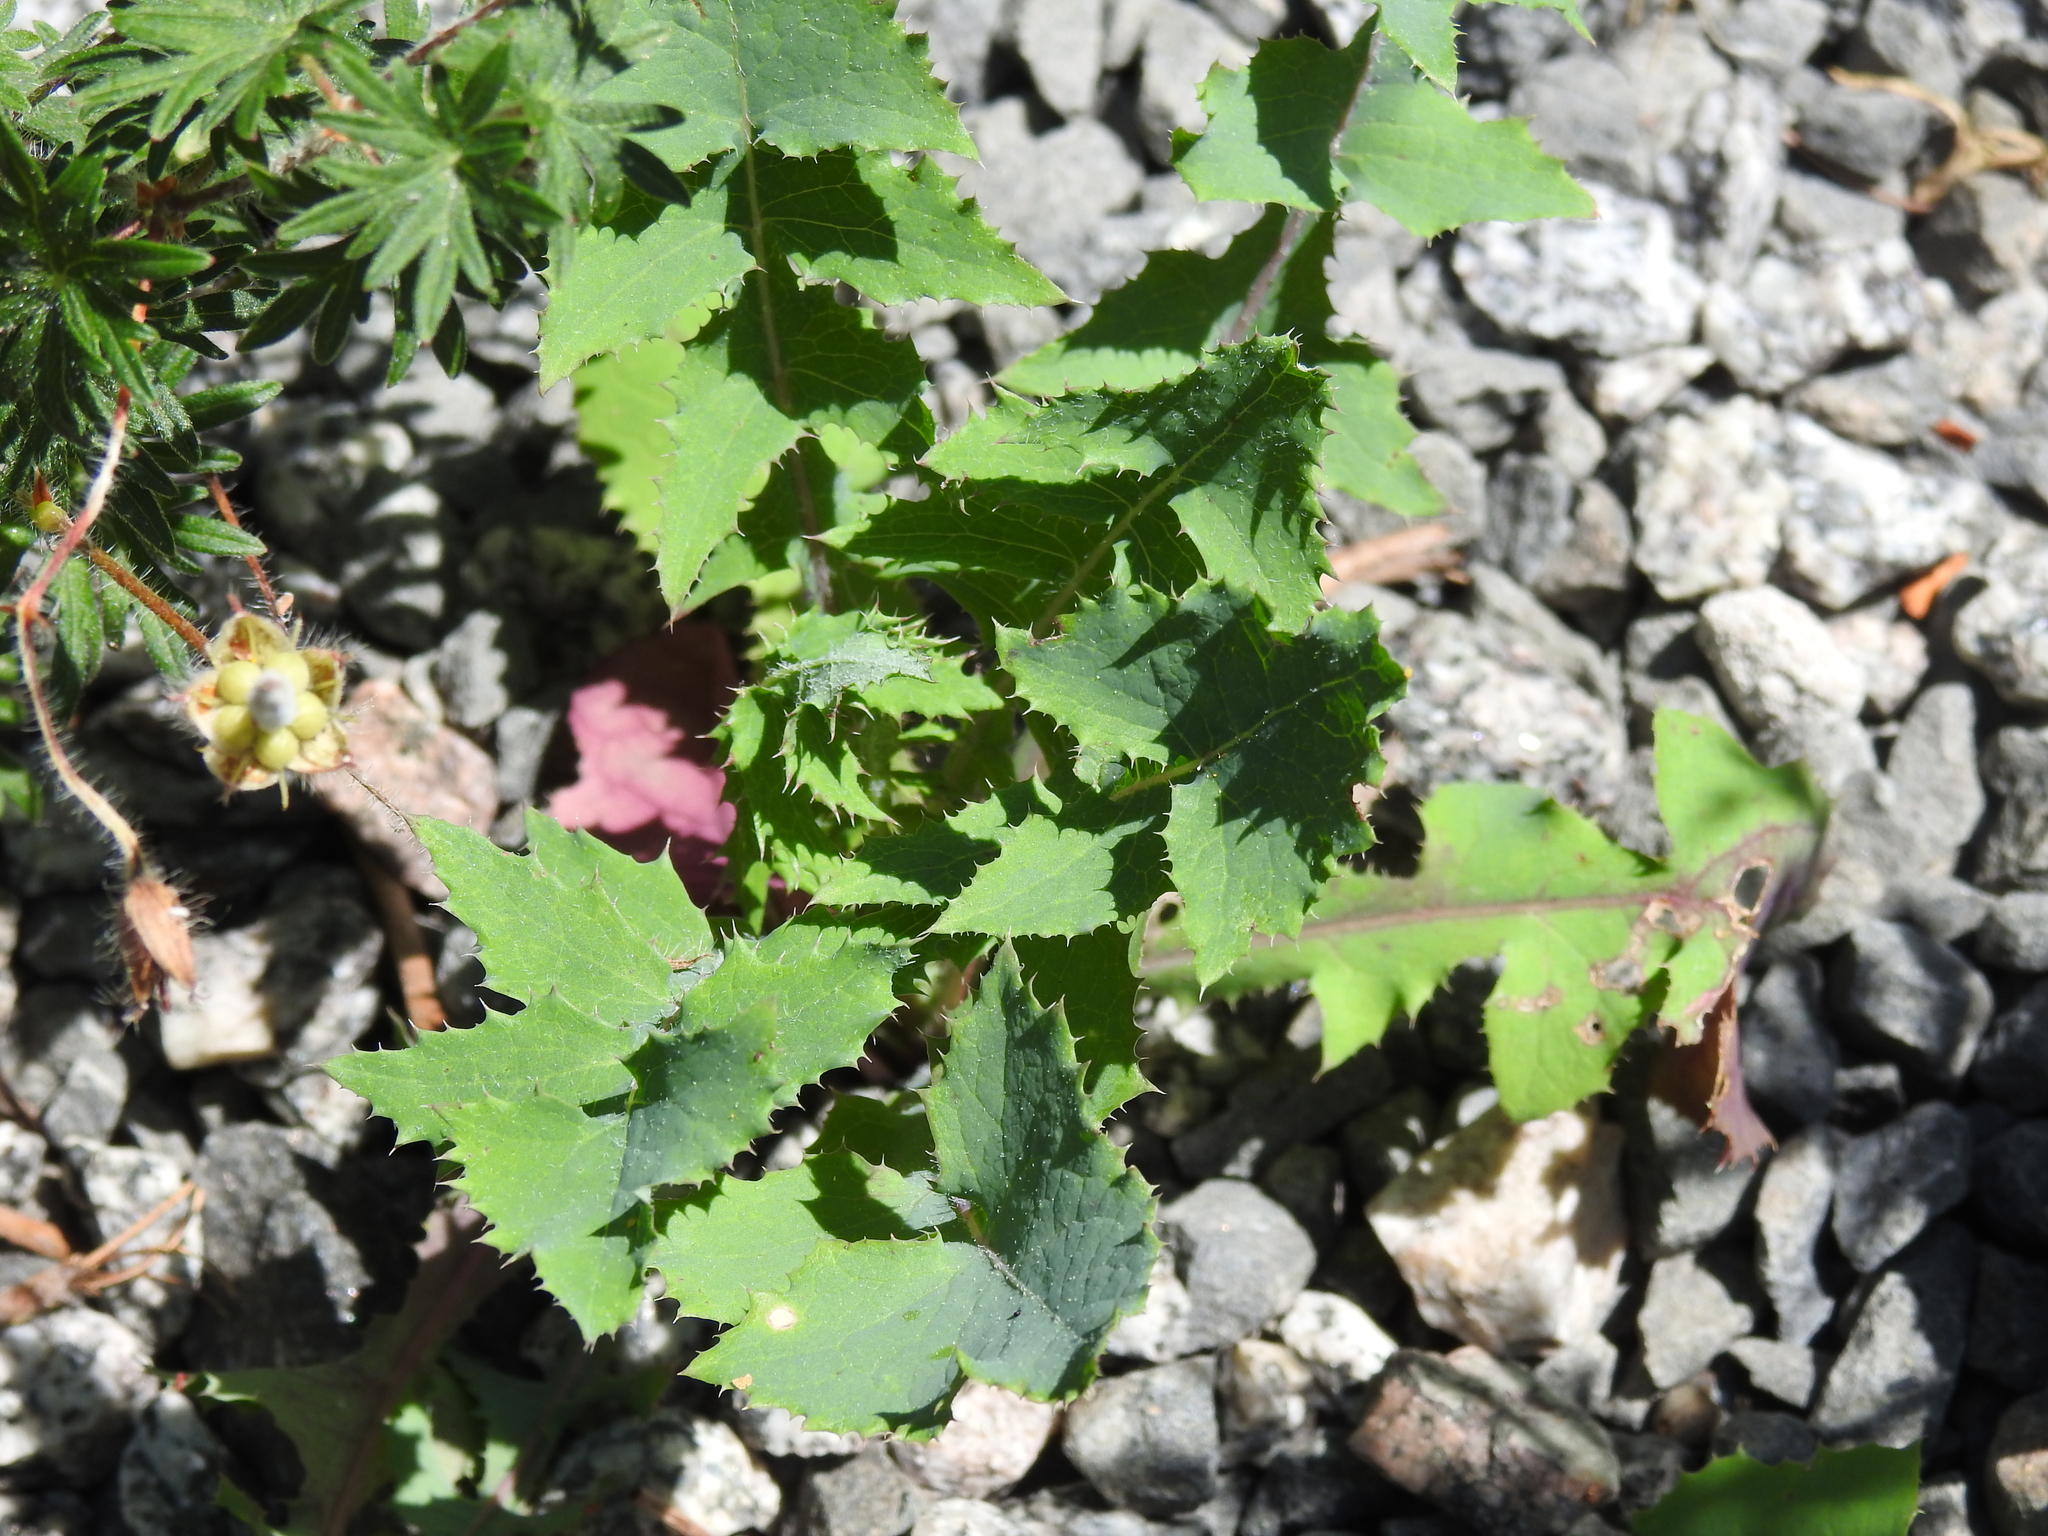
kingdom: Plantae
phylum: Tracheophyta
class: Magnoliopsida
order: Asterales
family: Asteraceae
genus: Sonchus
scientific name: Sonchus oleraceus
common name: Common sowthistle
